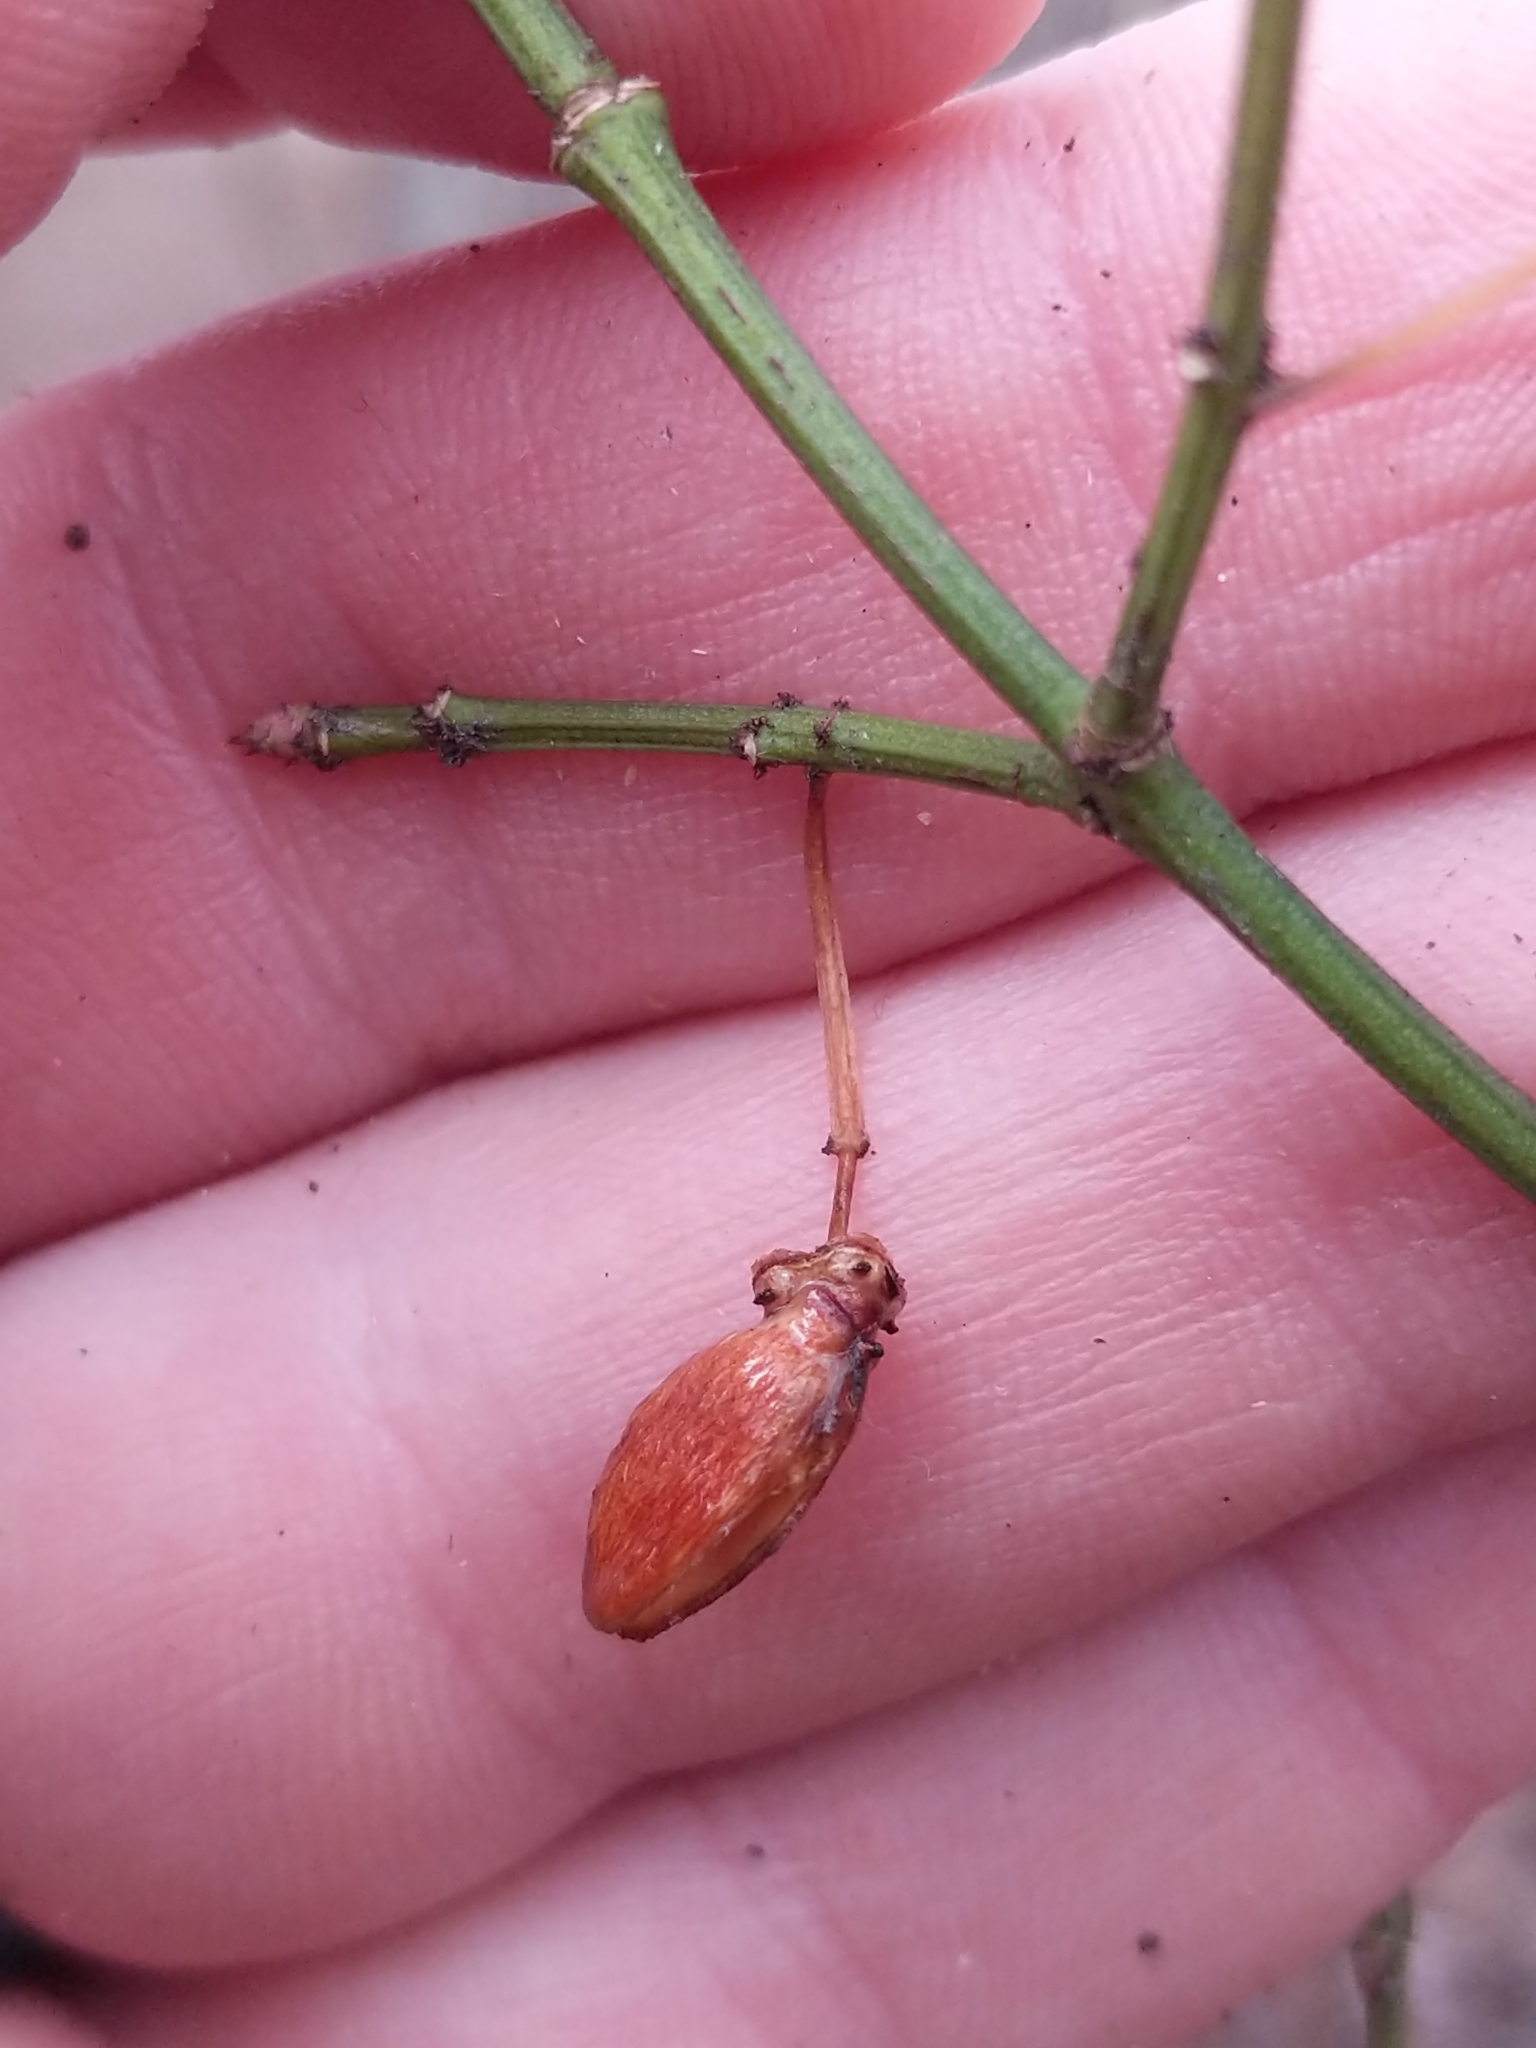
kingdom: Plantae
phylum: Tracheophyta
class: Magnoliopsida
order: Celastrales
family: Celastraceae
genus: Euonymus
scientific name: Euonymus alatus
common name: Winged euonymus
